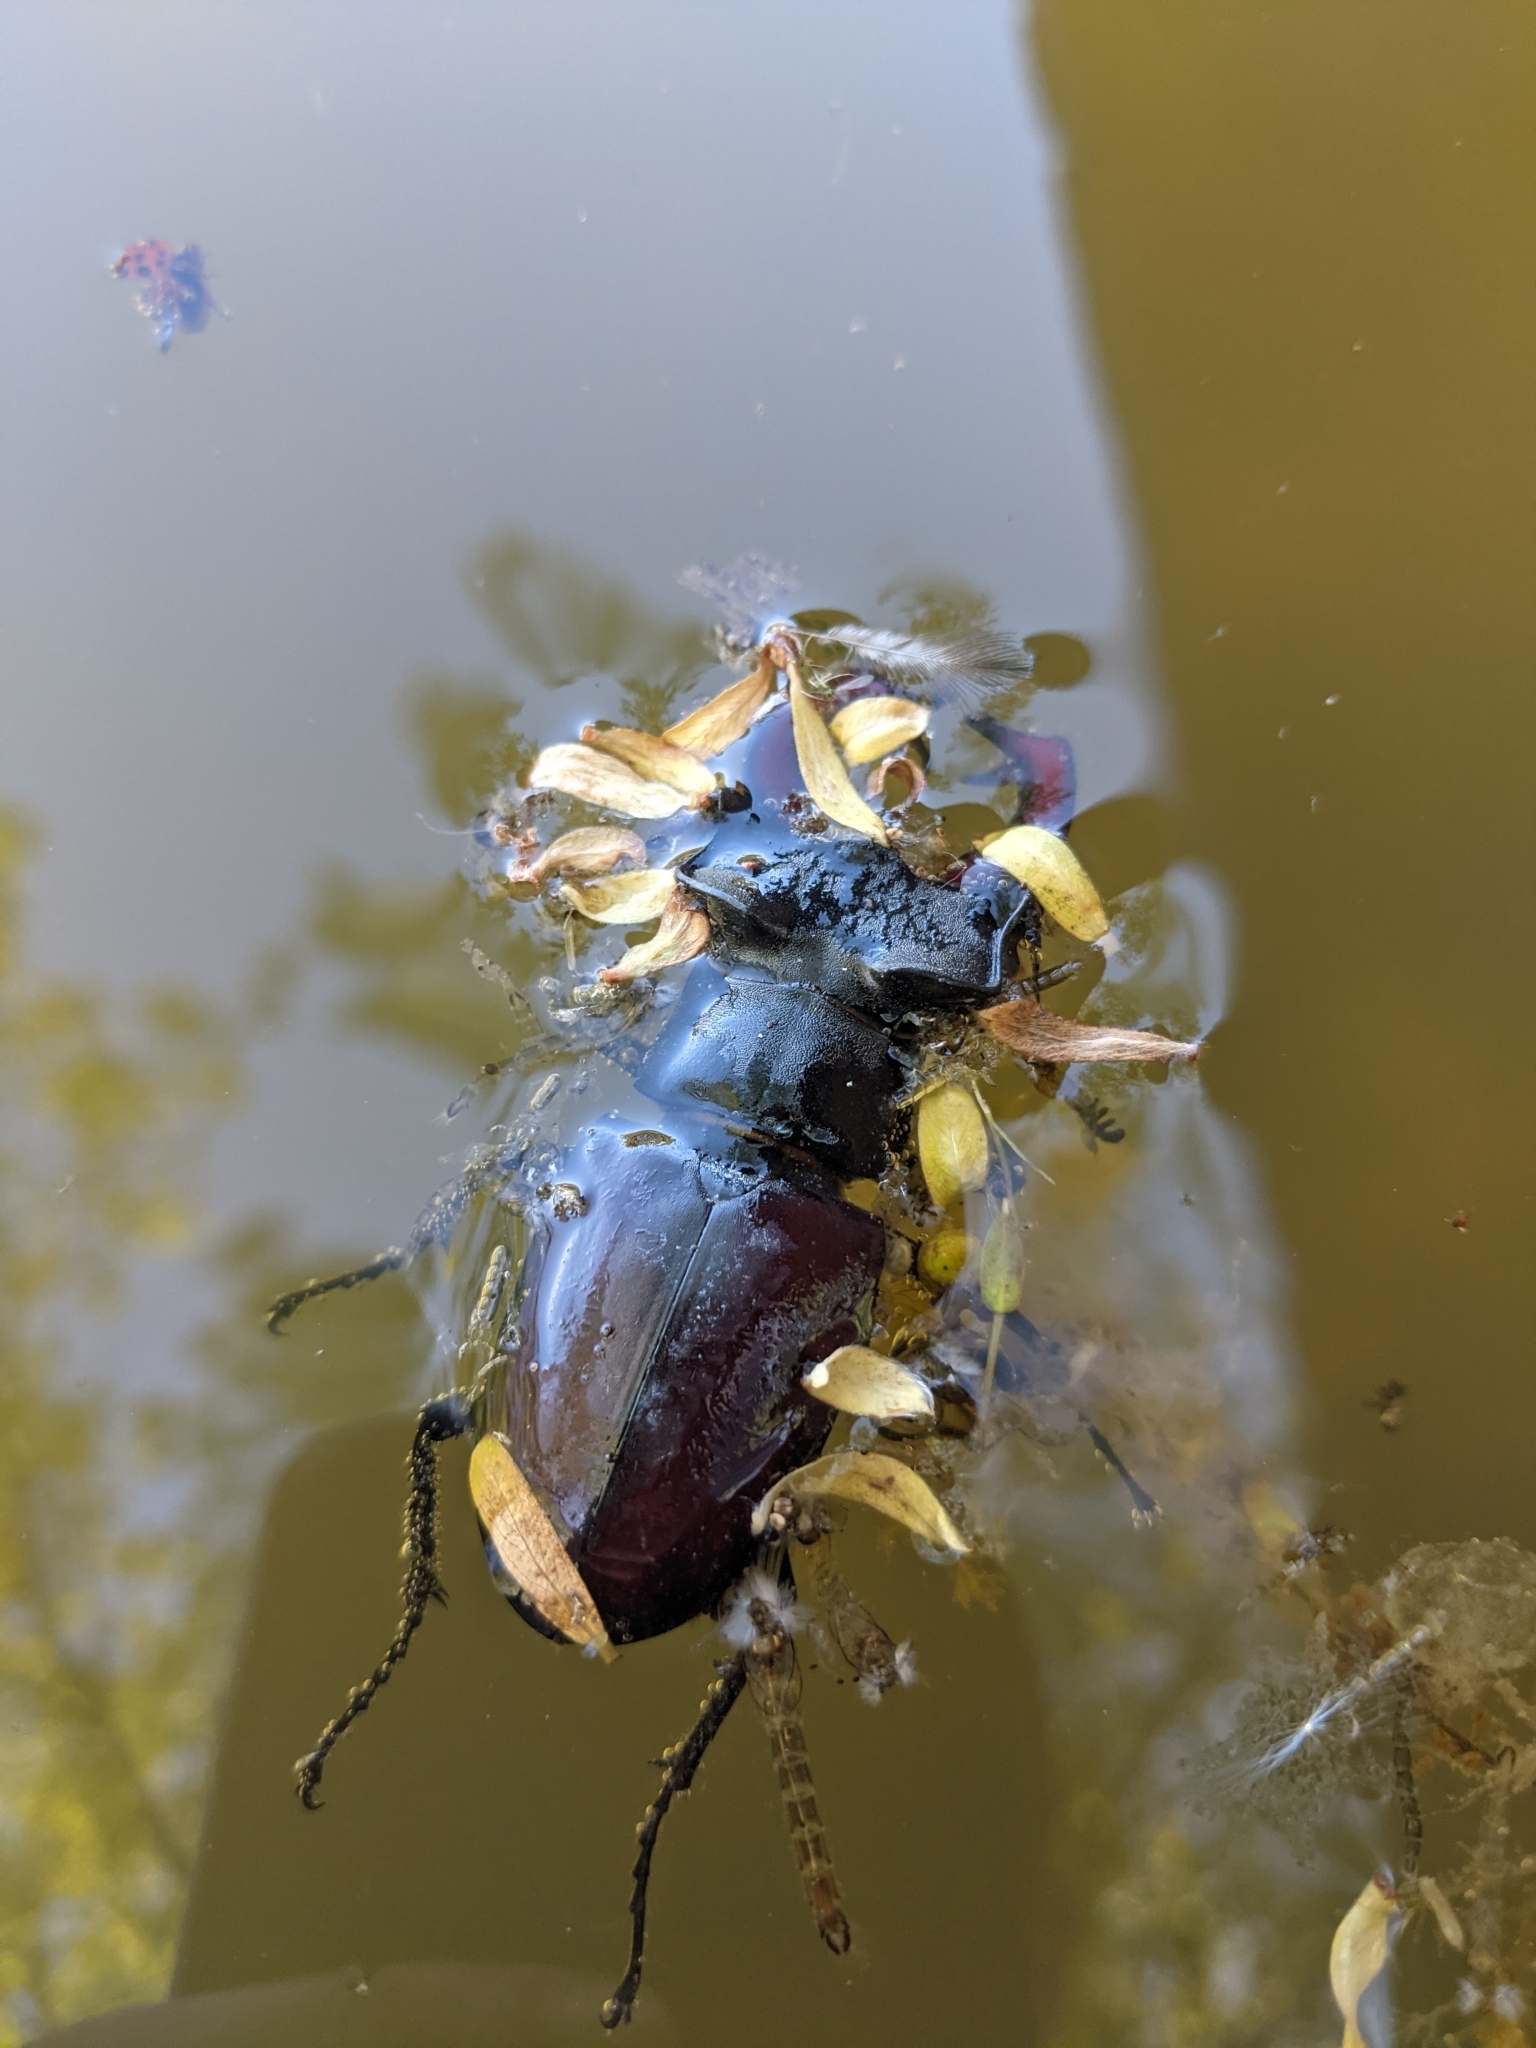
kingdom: Animalia
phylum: Arthropoda
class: Insecta
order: Coleoptera
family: Lucanidae
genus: Lucanus
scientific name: Lucanus cervus
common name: Stag beetle
